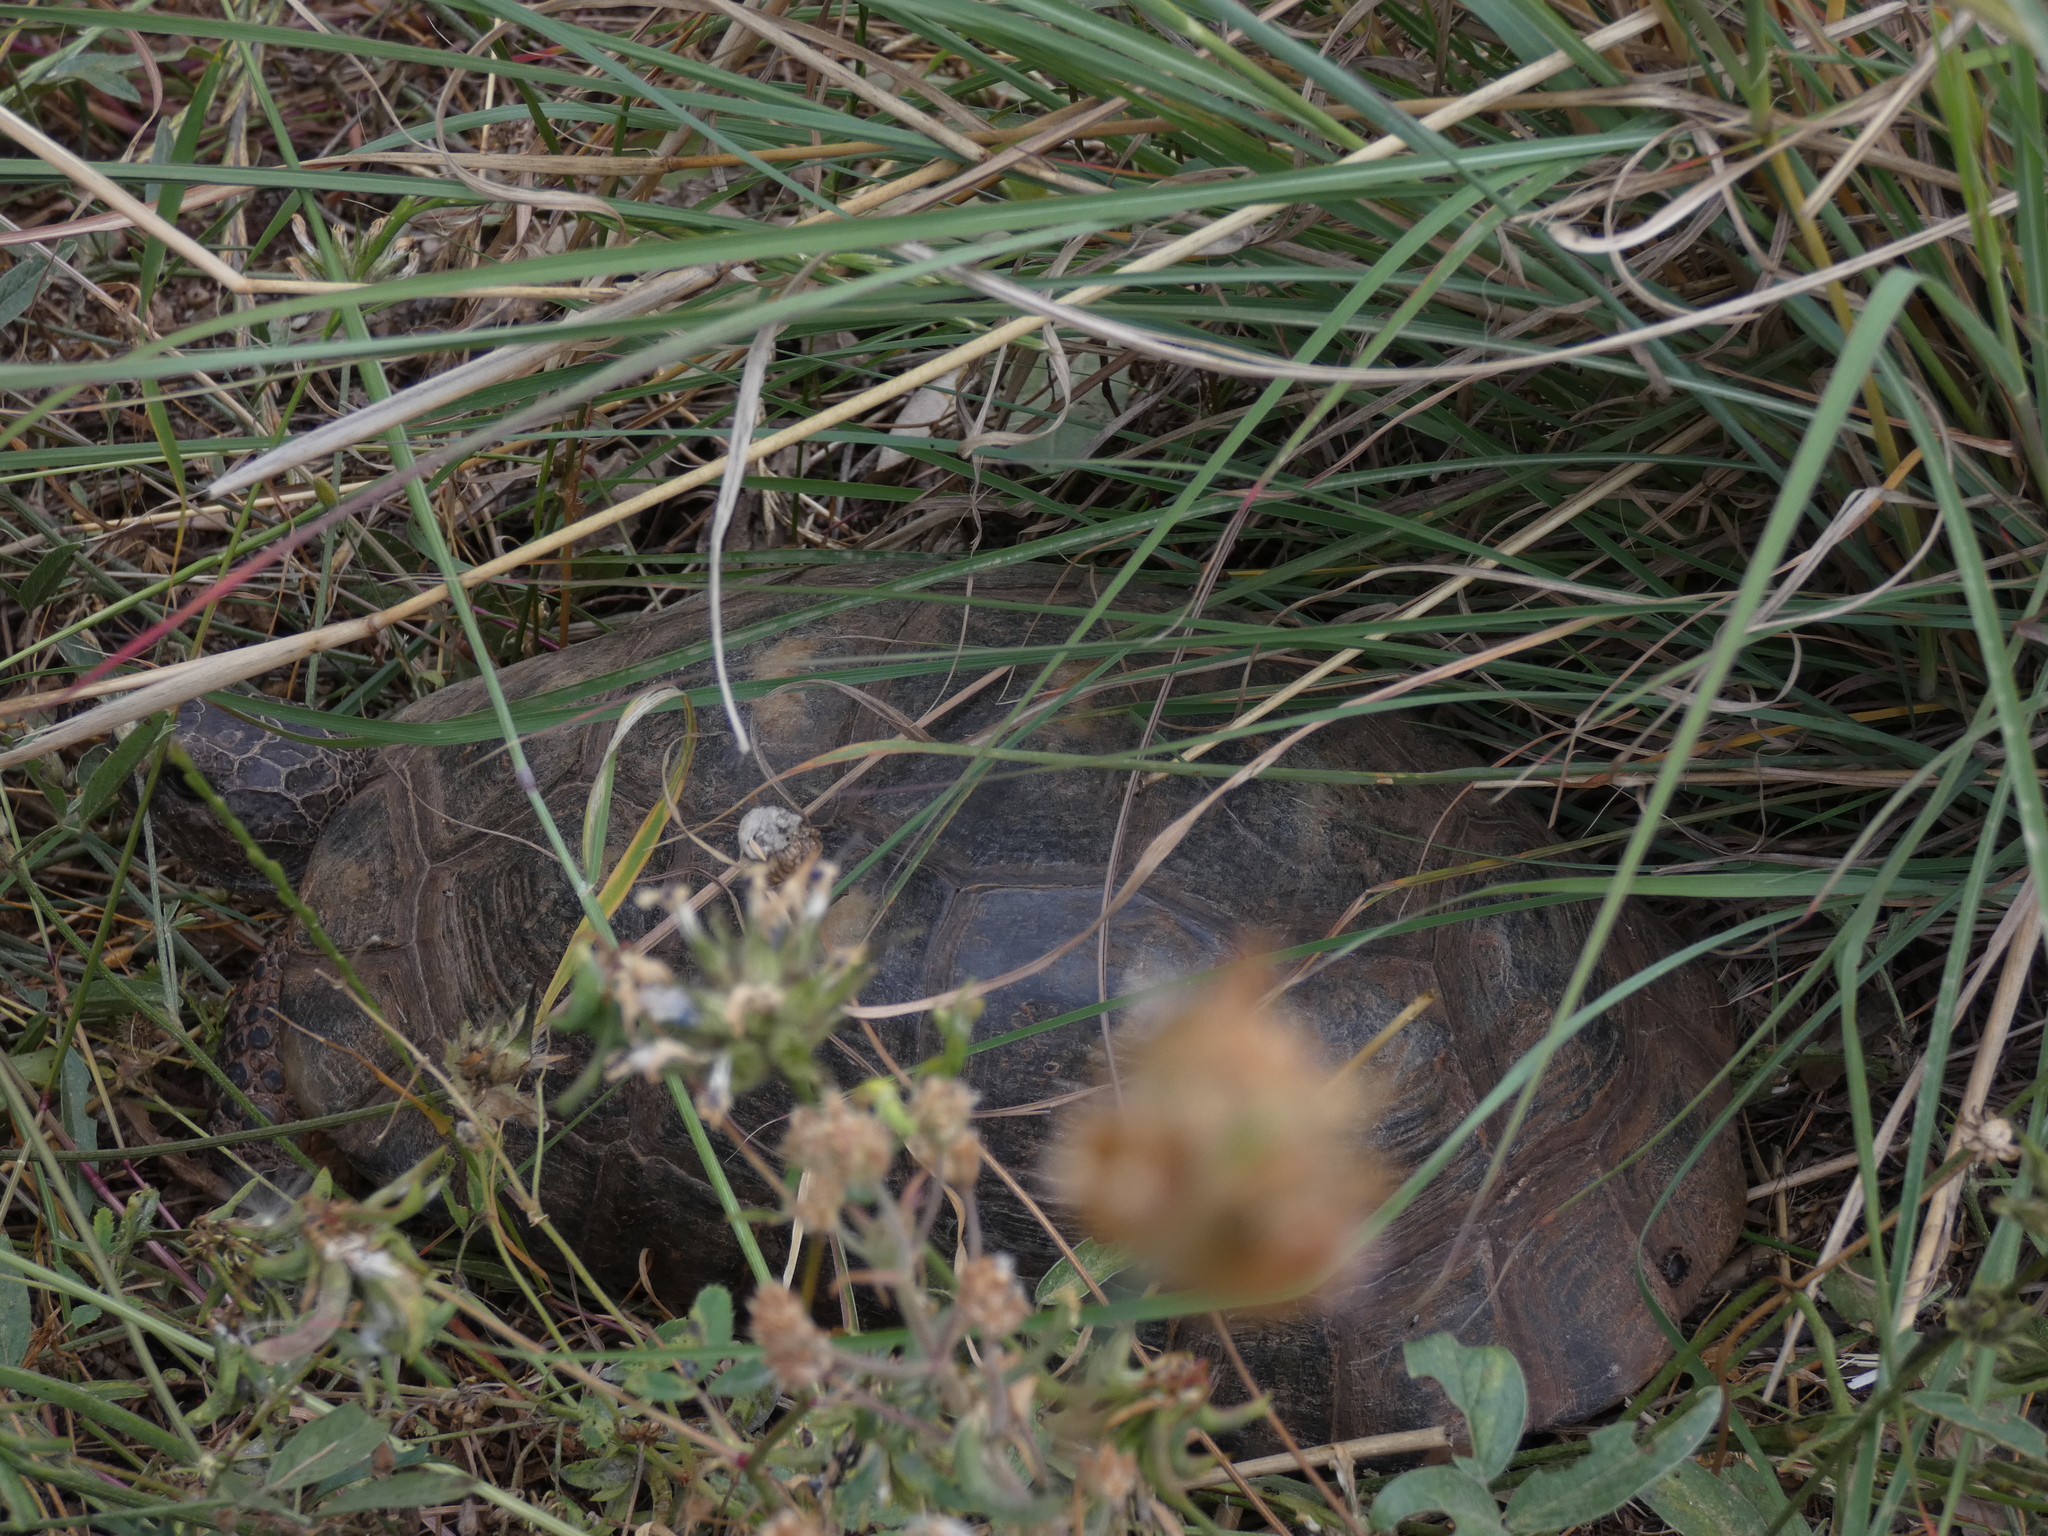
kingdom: Animalia
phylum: Chordata
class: Testudines
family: Testudinidae
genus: Testudo
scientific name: Testudo marginata
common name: Marginated tortoise
